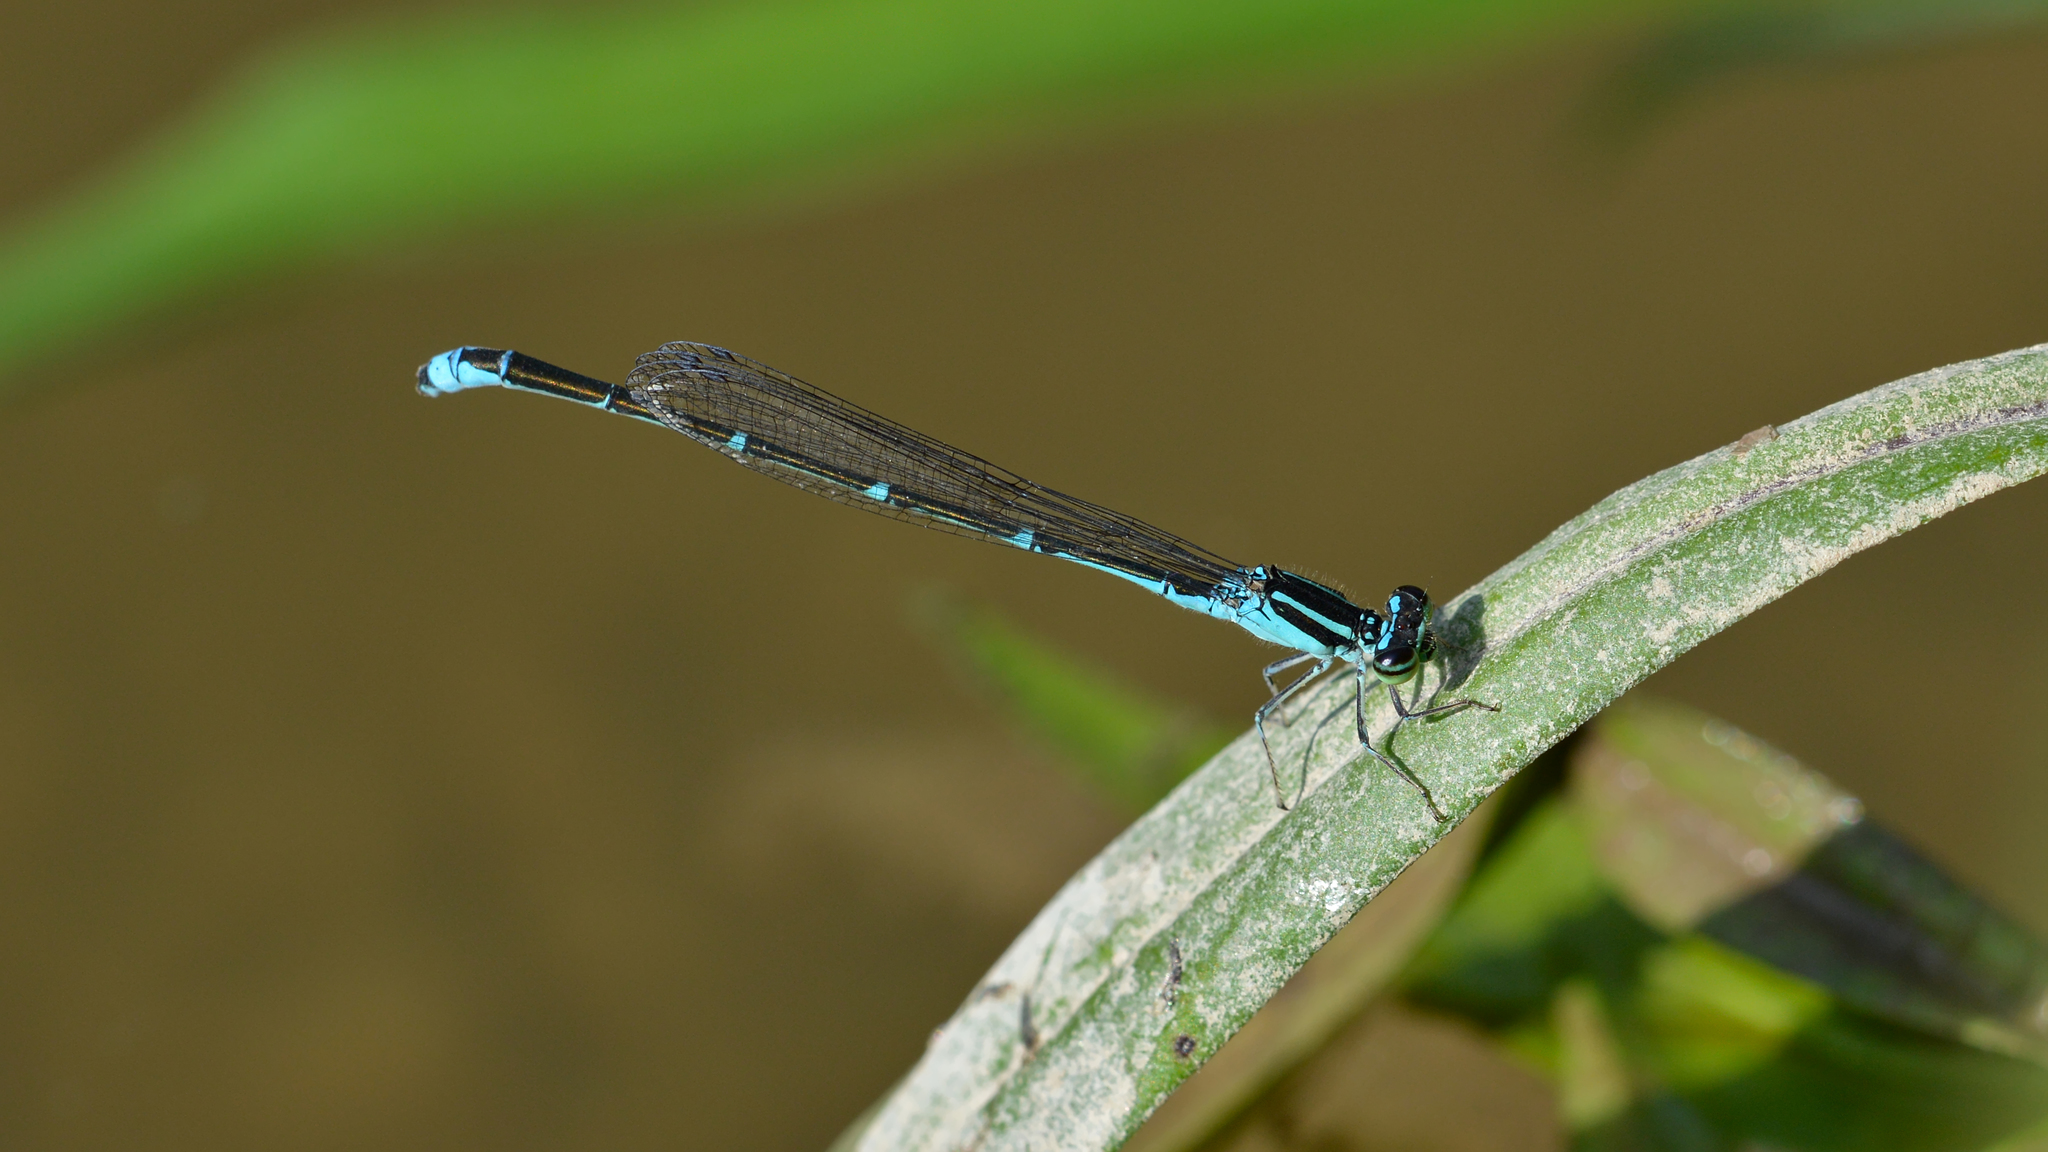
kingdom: Animalia
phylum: Arthropoda
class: Insecta
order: Odonata
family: Coenagrionidae
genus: Enallagma
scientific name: Enallagma exsulans
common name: Stream bluet
